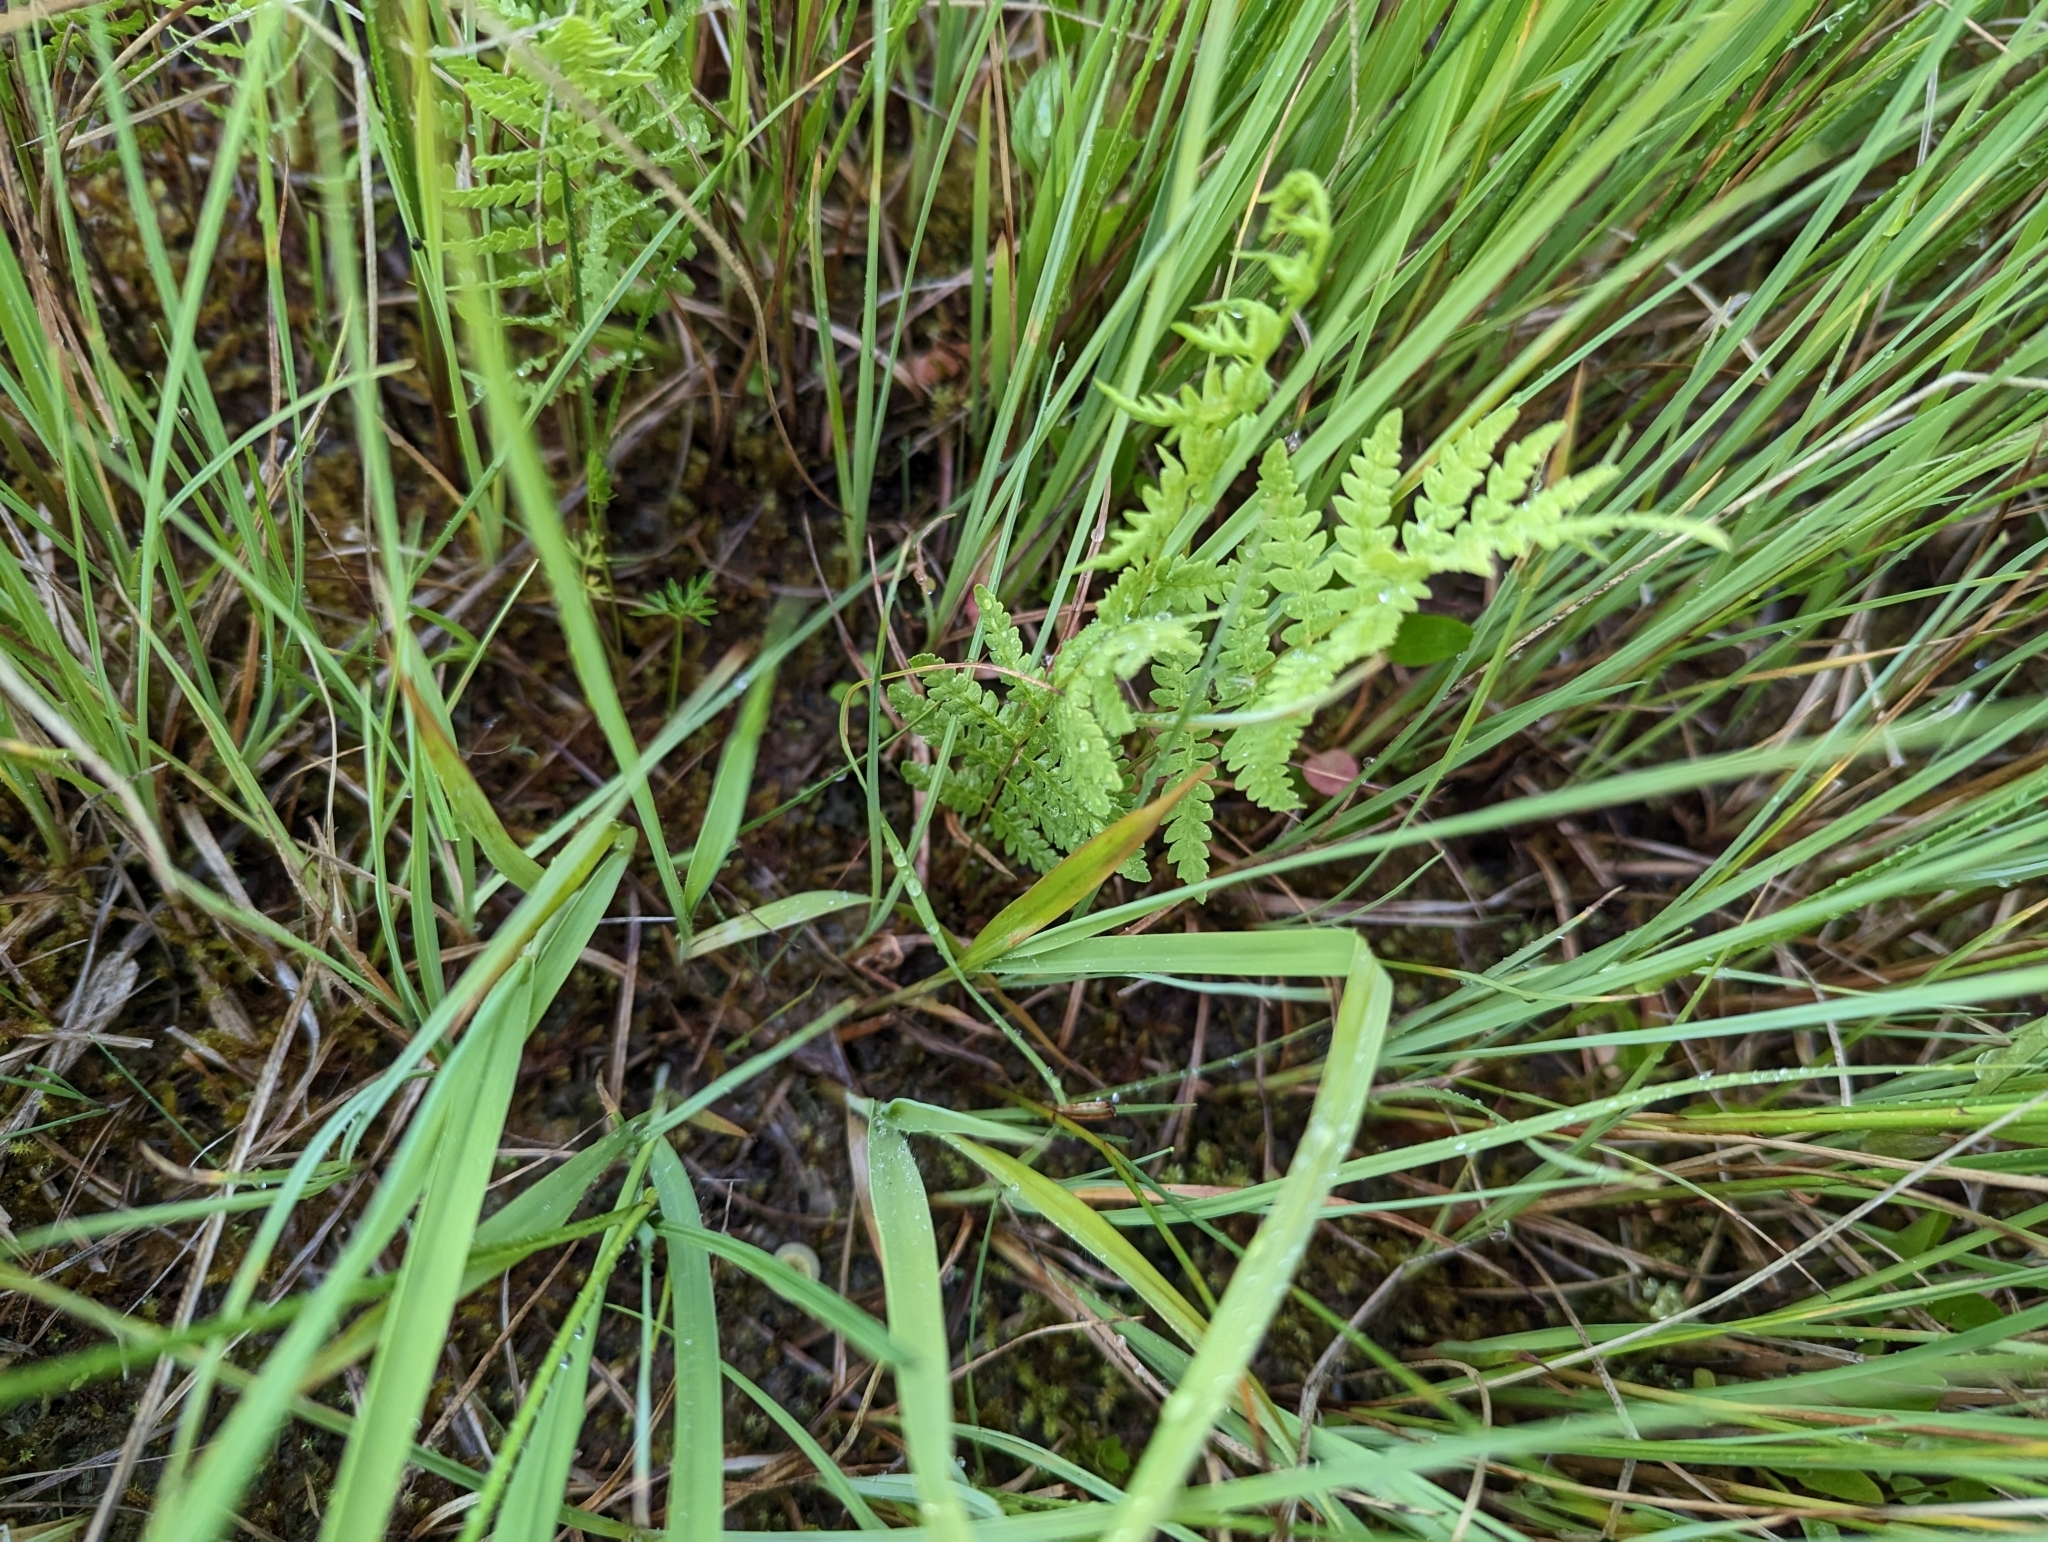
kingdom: Plantae
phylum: Tracheophyta
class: Polypodiopsida
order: Polypodiales
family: Thelypteridaceae
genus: Thelypteris
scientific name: Thelypteris palustris
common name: Marsh fern
